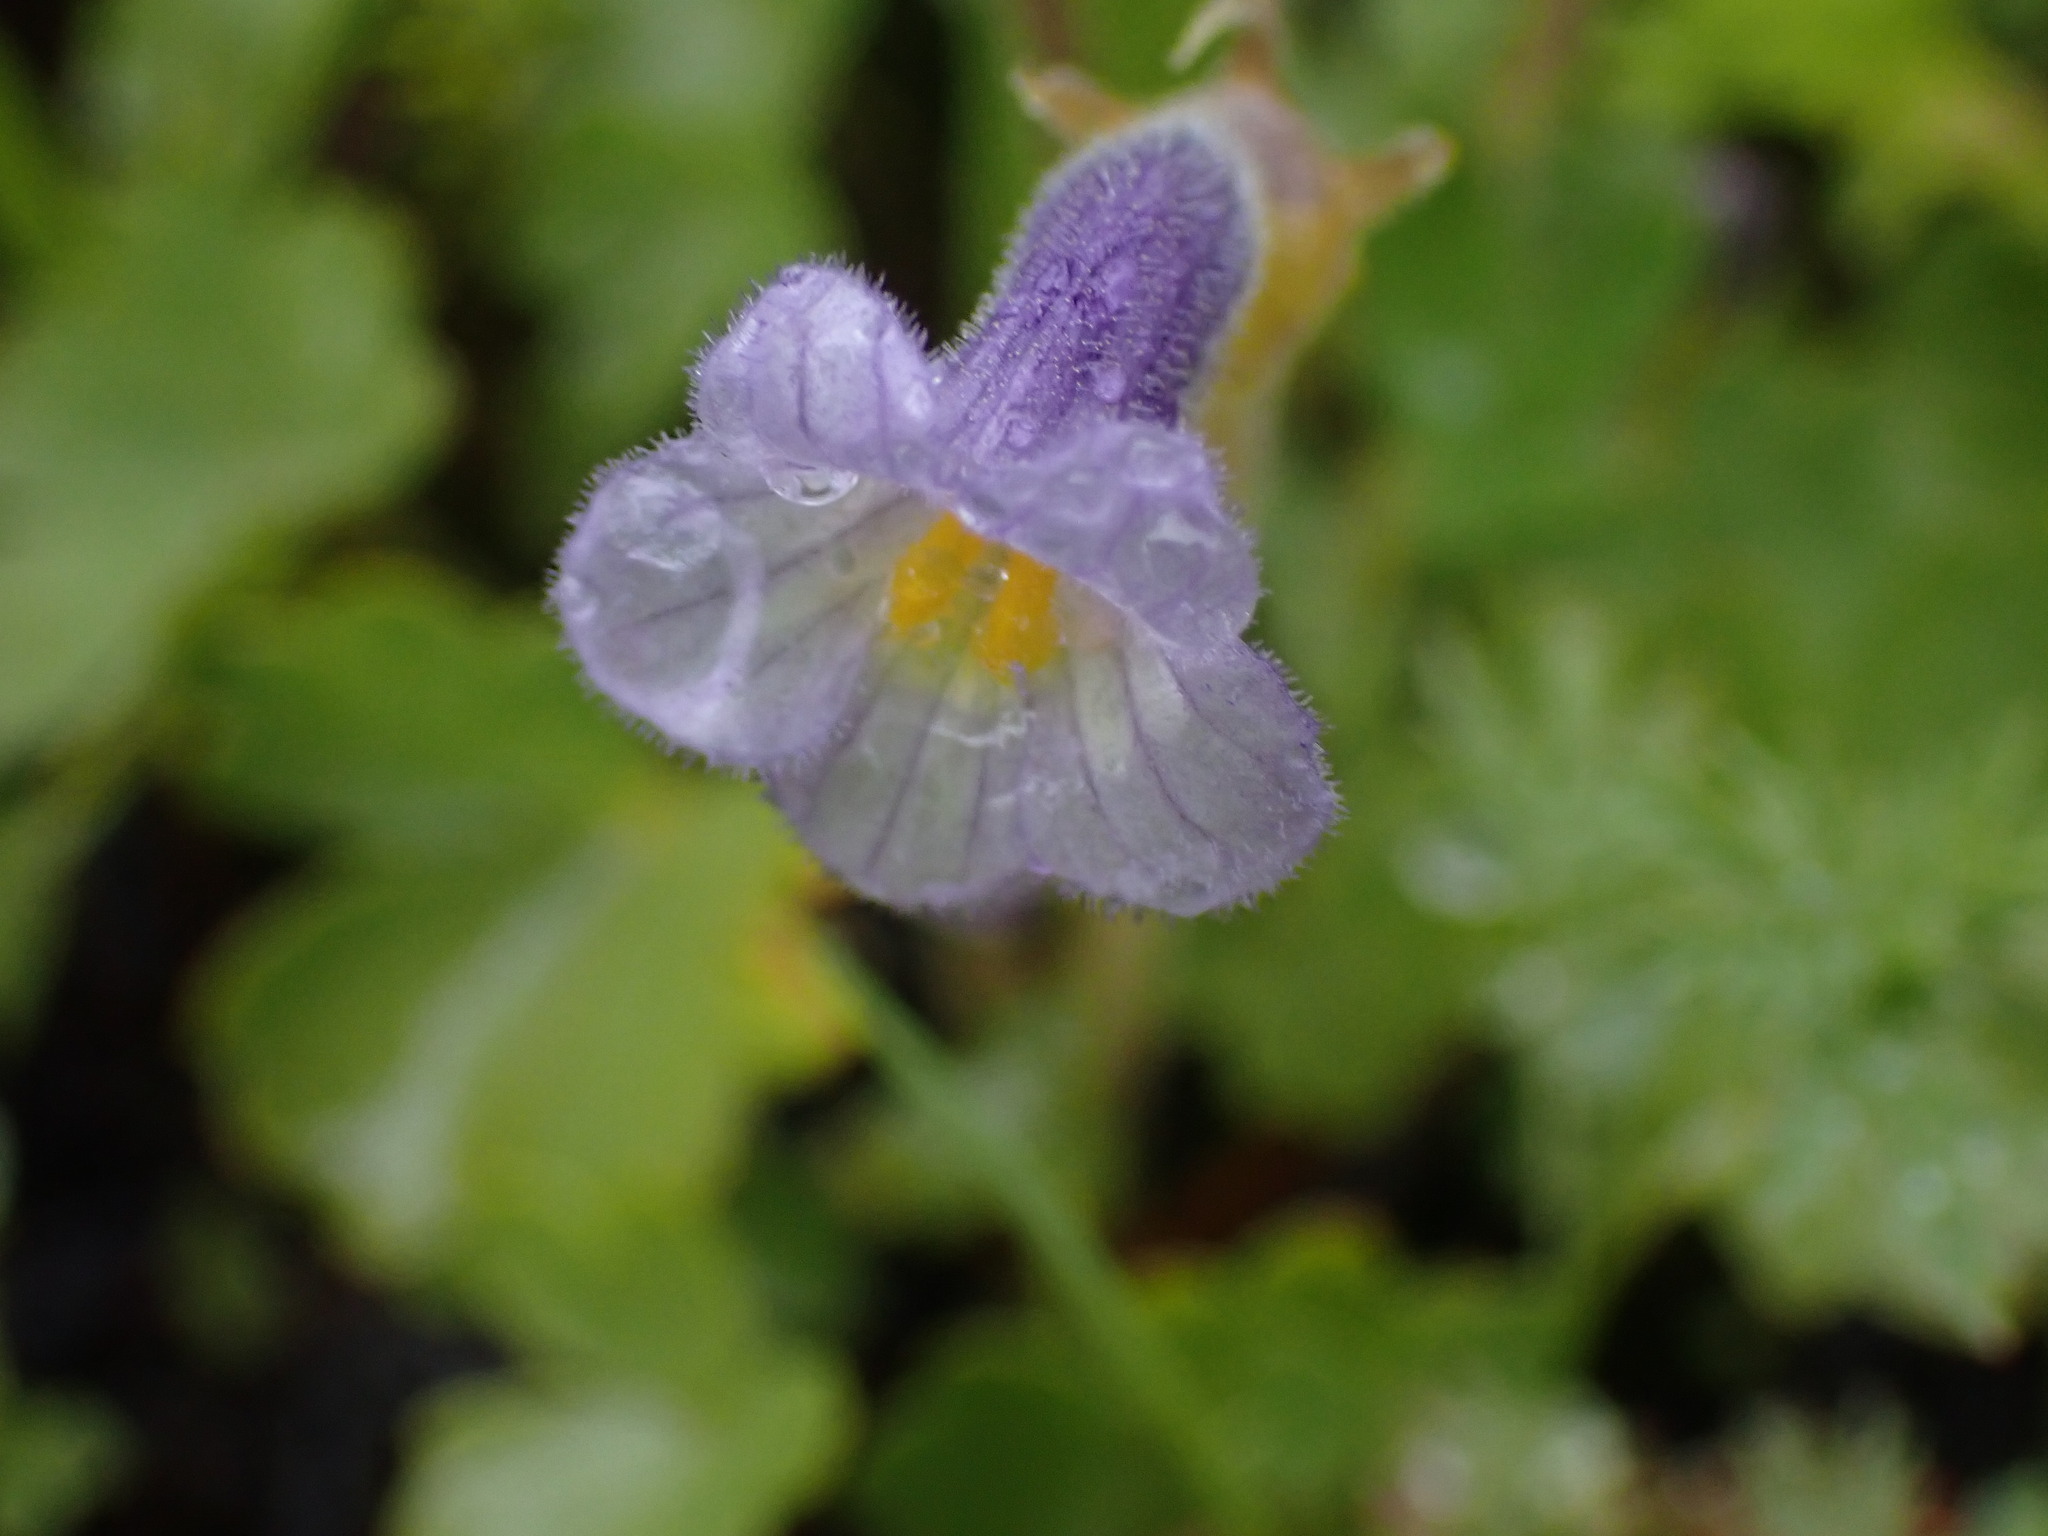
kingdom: Plantae
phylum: Tracheophyta
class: Magnoliopsida
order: Lamiales
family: Orobanchaceae
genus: Aphyllon
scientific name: Aphyllon uniflorum
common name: One-flowered broomrape
